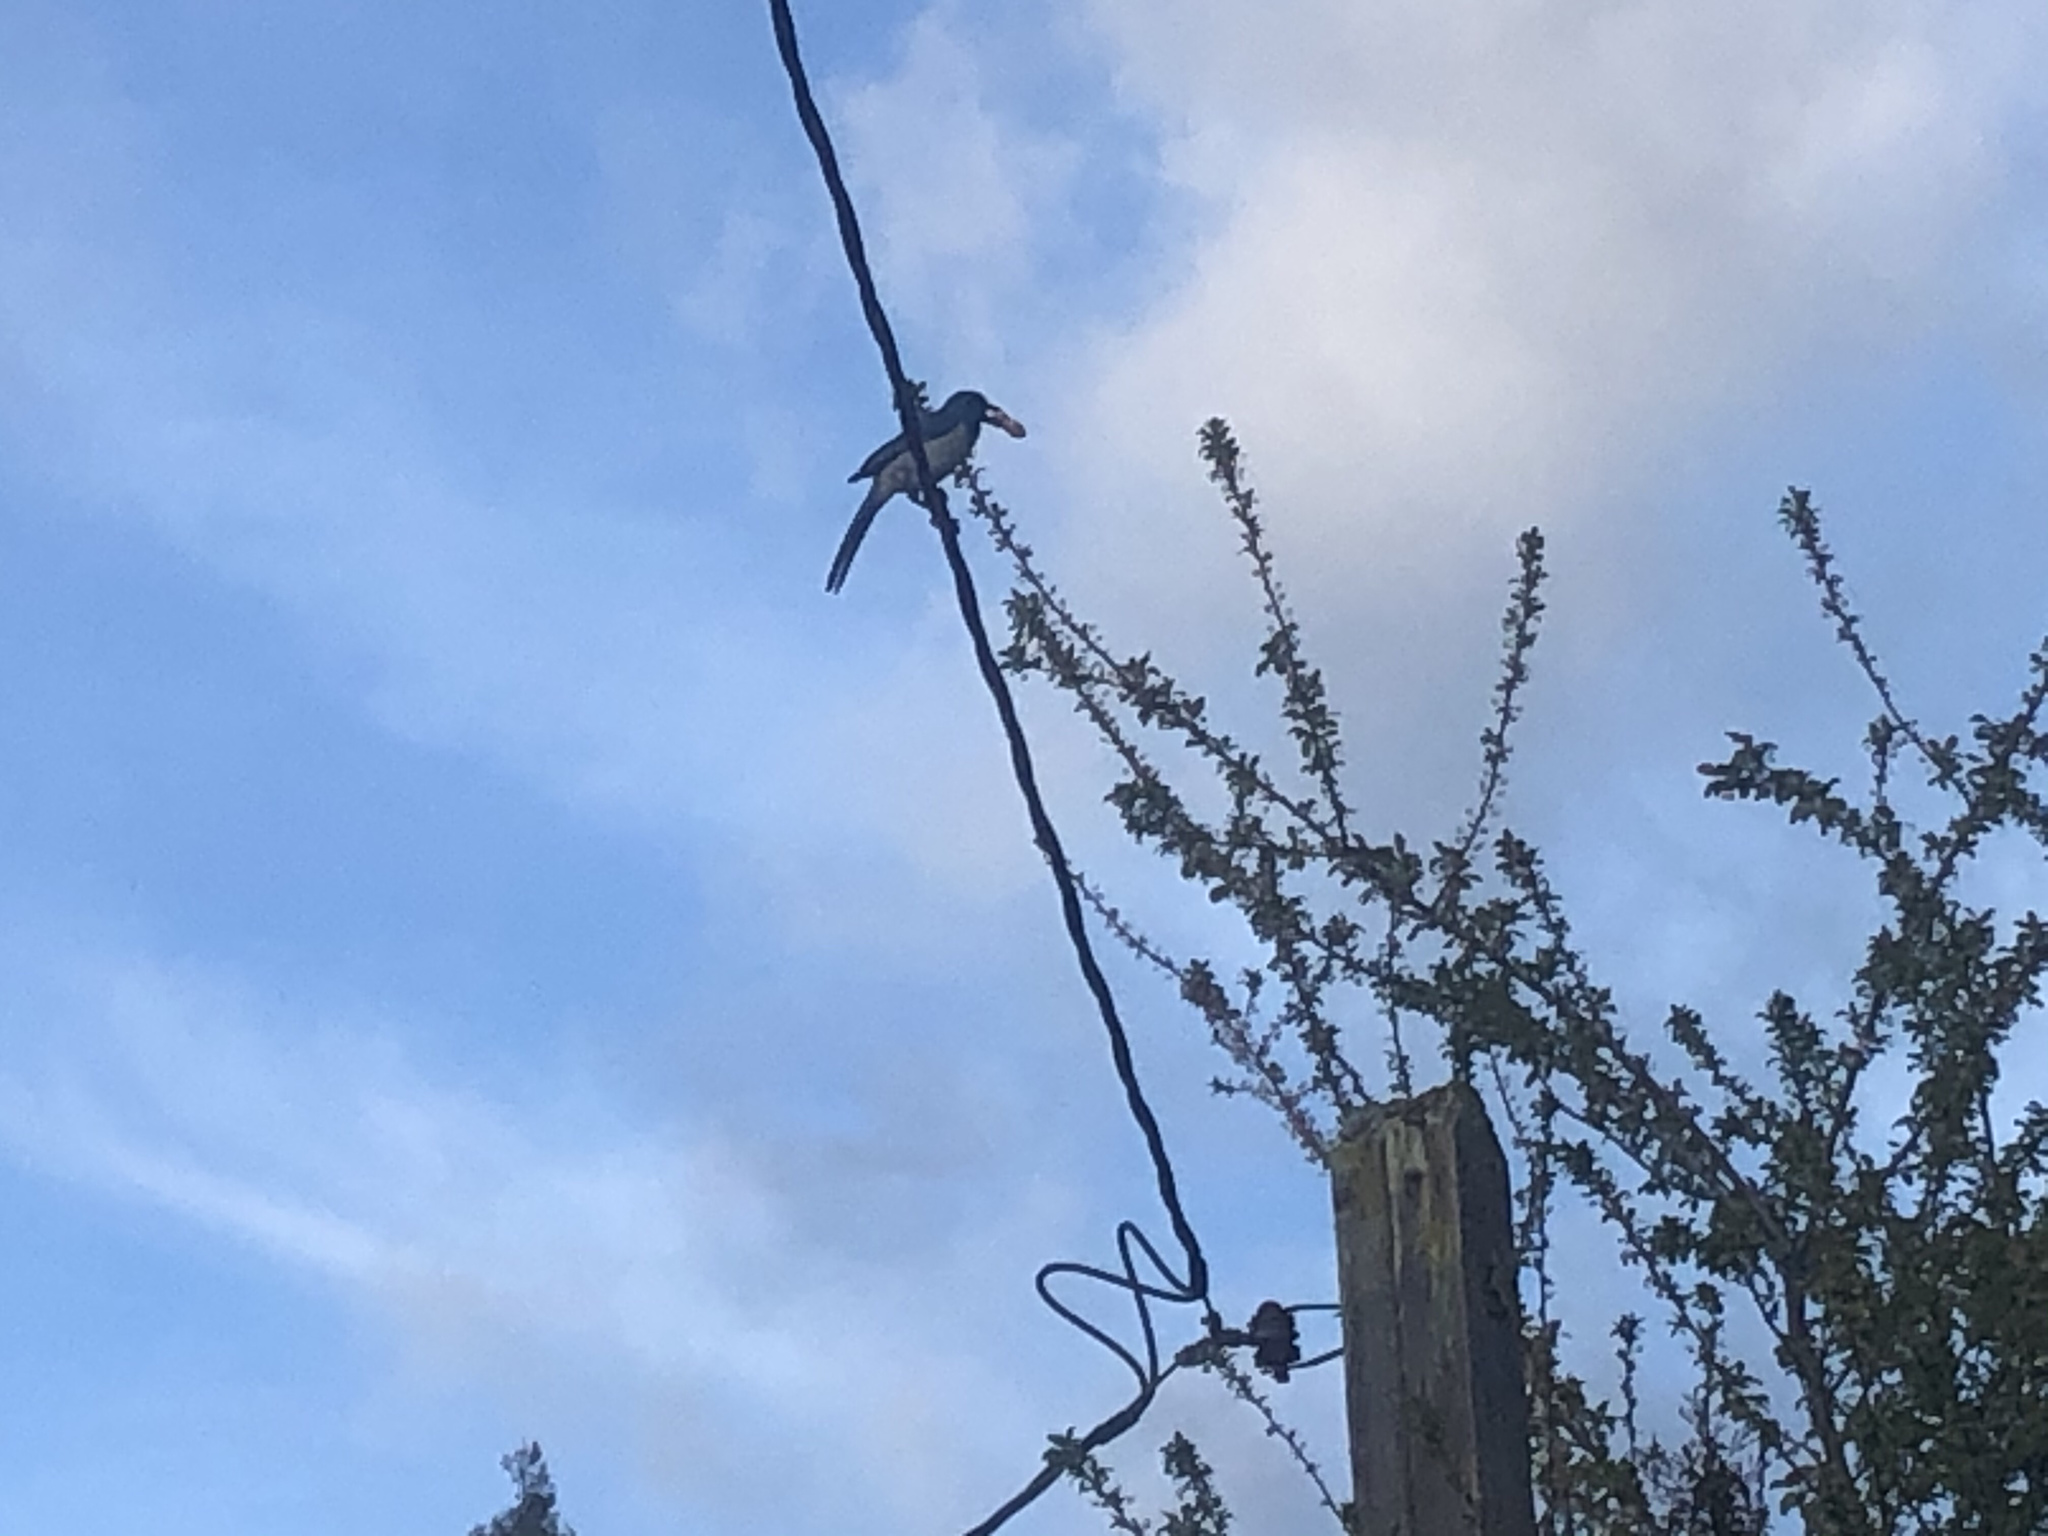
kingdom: Animalia
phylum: Chordata
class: Aves
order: Passeriformes
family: Corvidae
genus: Aphelocoma
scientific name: Aphelocoma californica
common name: California scrub-jay
